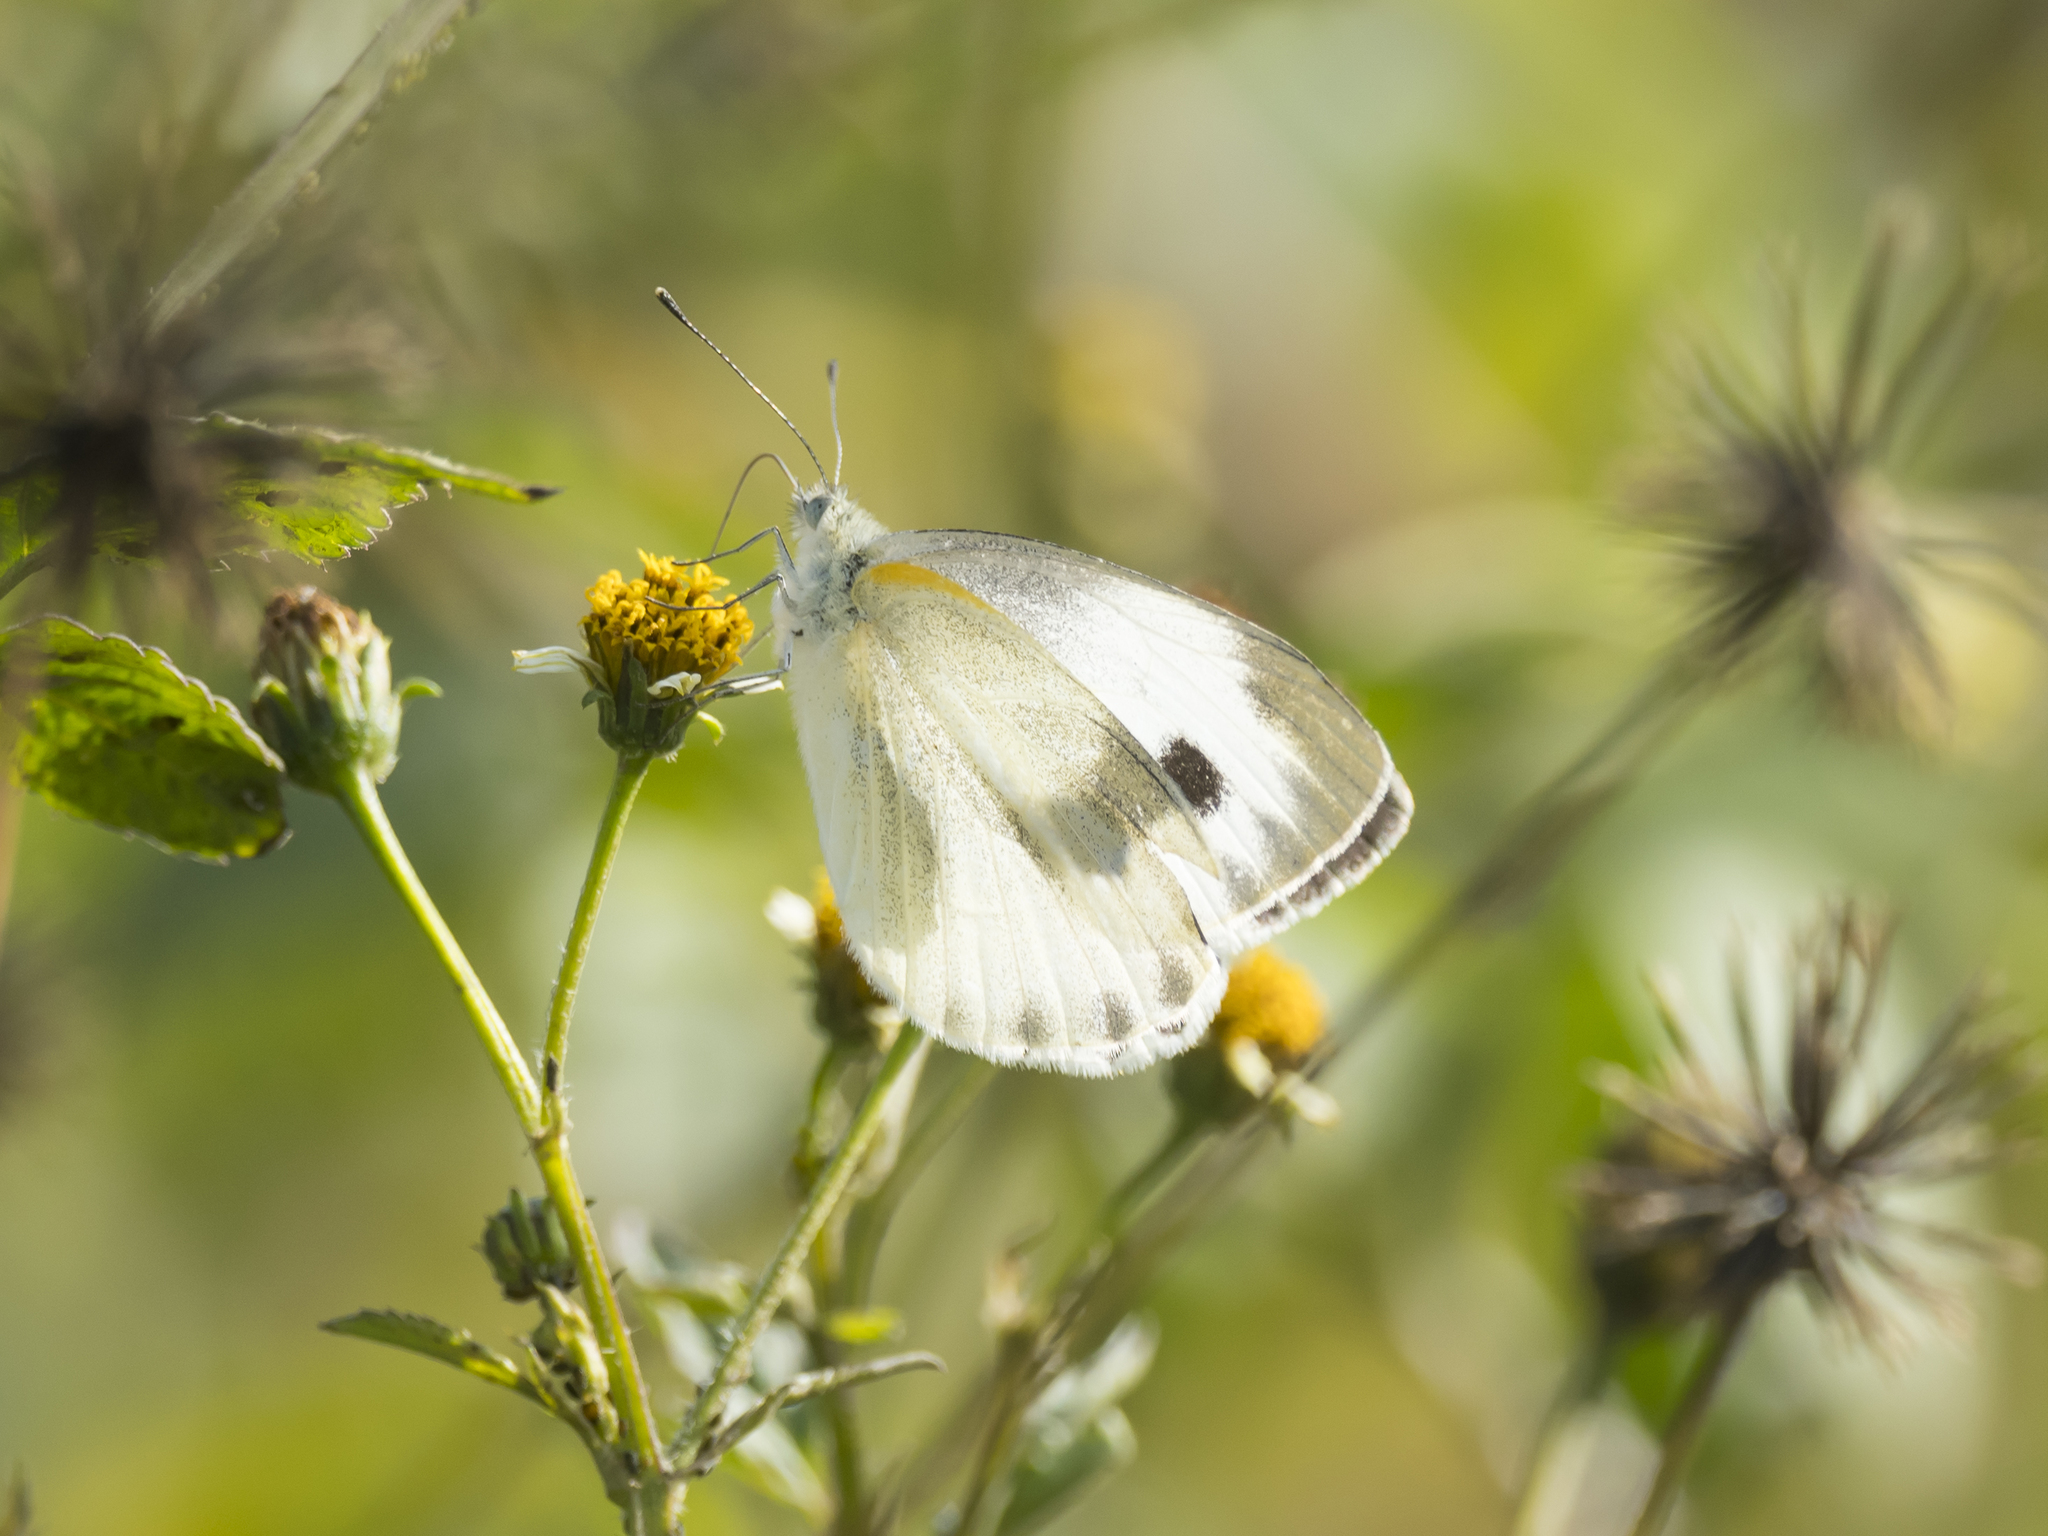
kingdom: Animalia
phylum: Arthropoda
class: Insecta
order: Lepidoptera
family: Pieridae
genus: Pieris
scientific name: Pieris canidia
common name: Indian cabbage white
